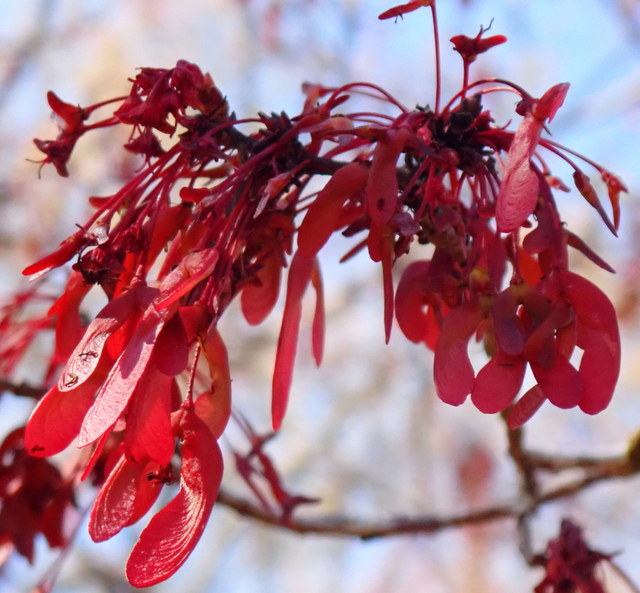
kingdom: Plantae
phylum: Tracheophyta
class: Magnoliopsida
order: Sapindales
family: Sapindaceae
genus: Acer
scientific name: Acer rubrum
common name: Red maple
